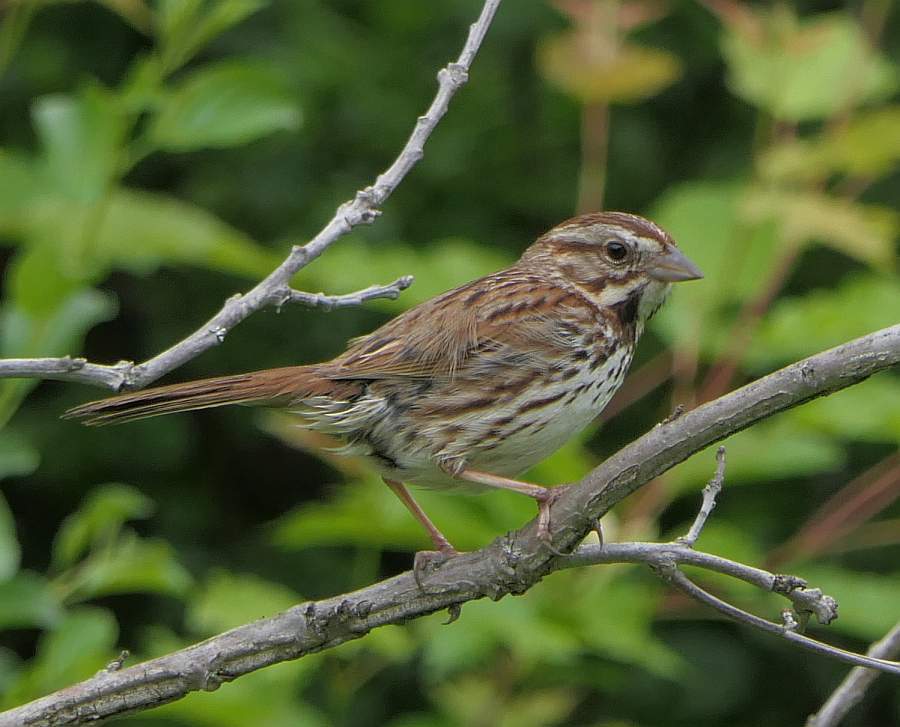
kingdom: Animalia
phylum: Chordata
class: Aves
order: Passeriformes
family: Passerellidae
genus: Melospiza
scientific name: Melospiza melodia
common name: Song sparrow
